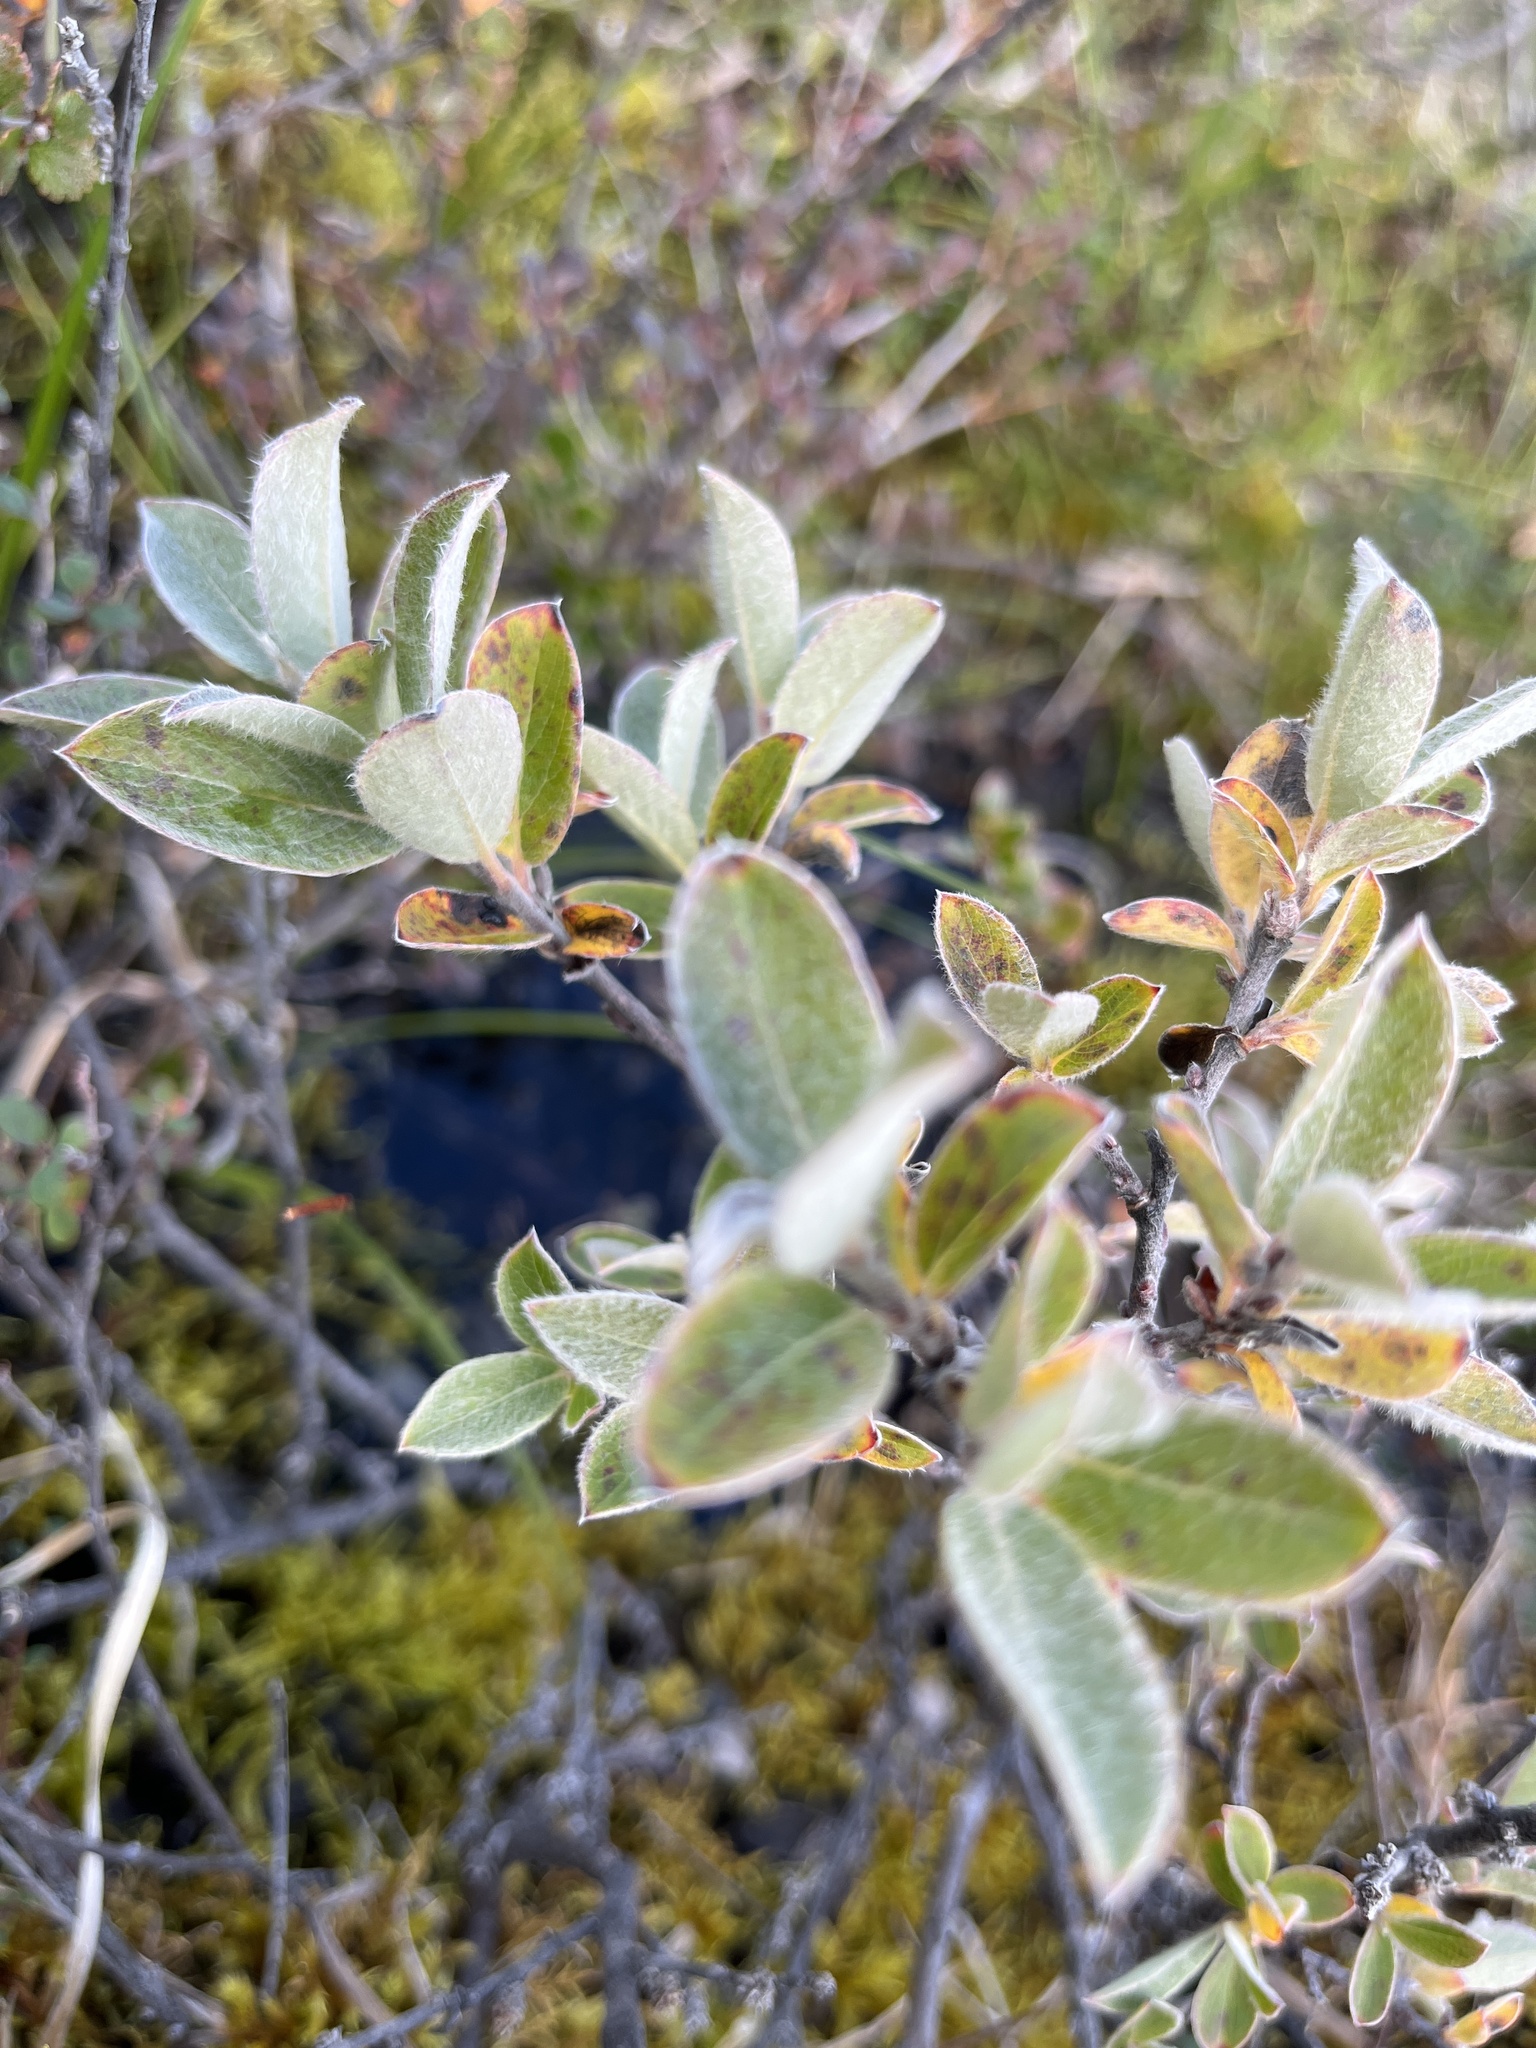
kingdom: Plantae
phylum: Tracheophyta
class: Magnoliopsida
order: Malpighiales
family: Salicaceae
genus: Salix
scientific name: Salix glauca
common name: Glaucous willow
